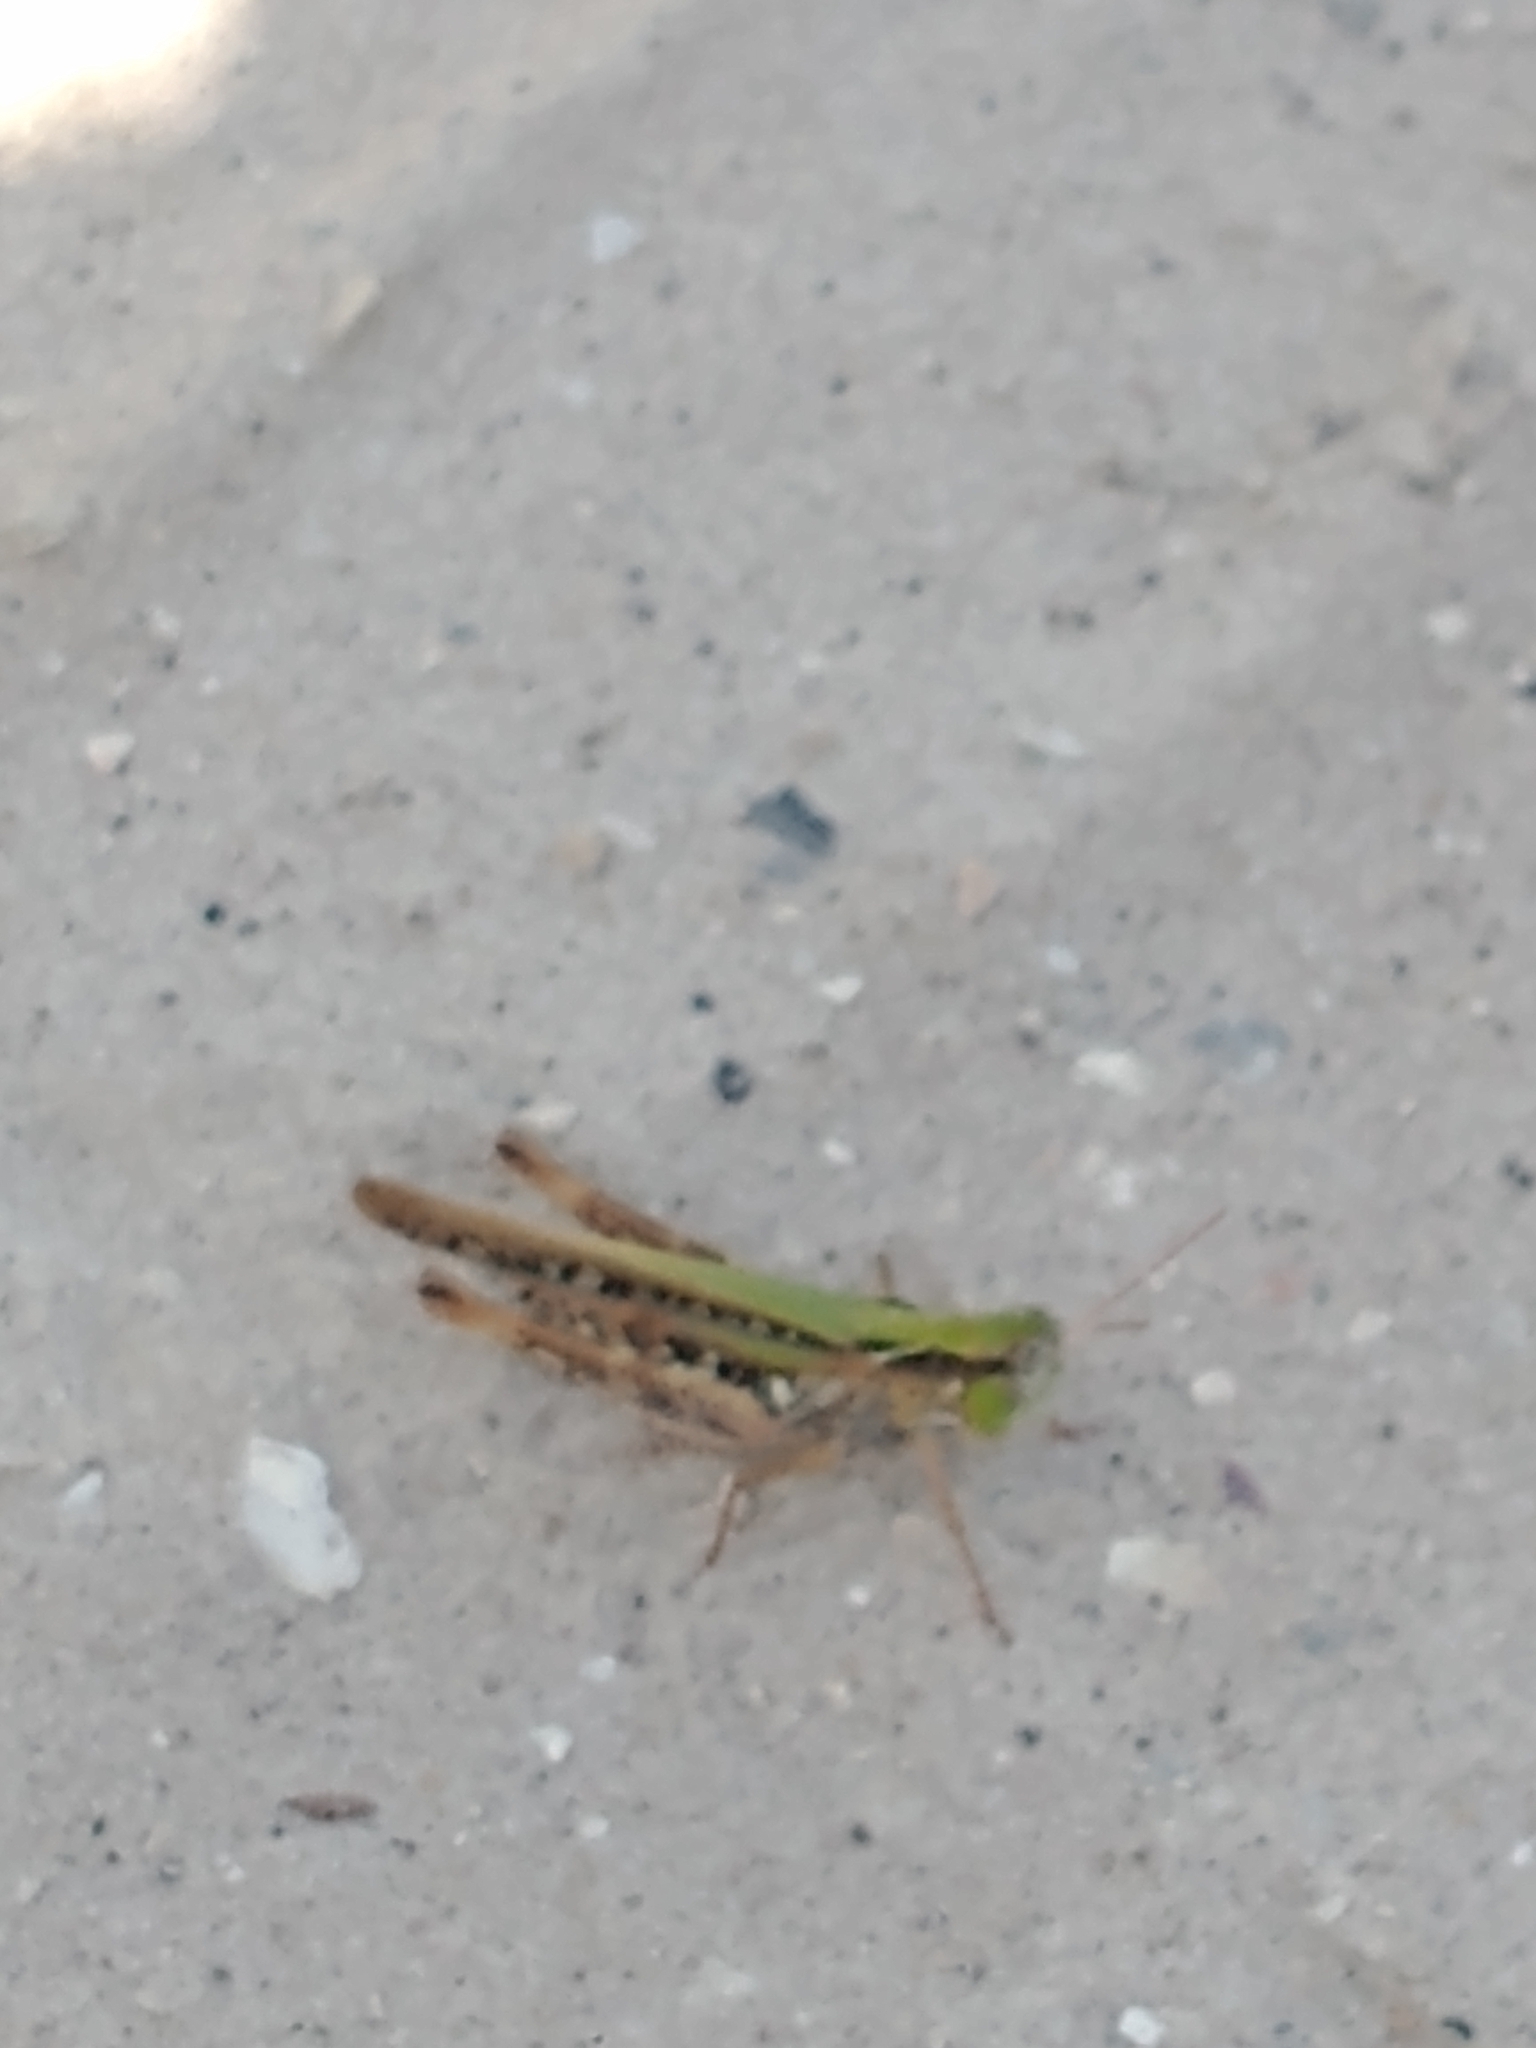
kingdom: Animalia
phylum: Arthropoda
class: Insecta
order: Orthoptera
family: Acrididae
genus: Orphulella
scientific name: Orphulella pelidna
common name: Spotted-wing grasshopper
